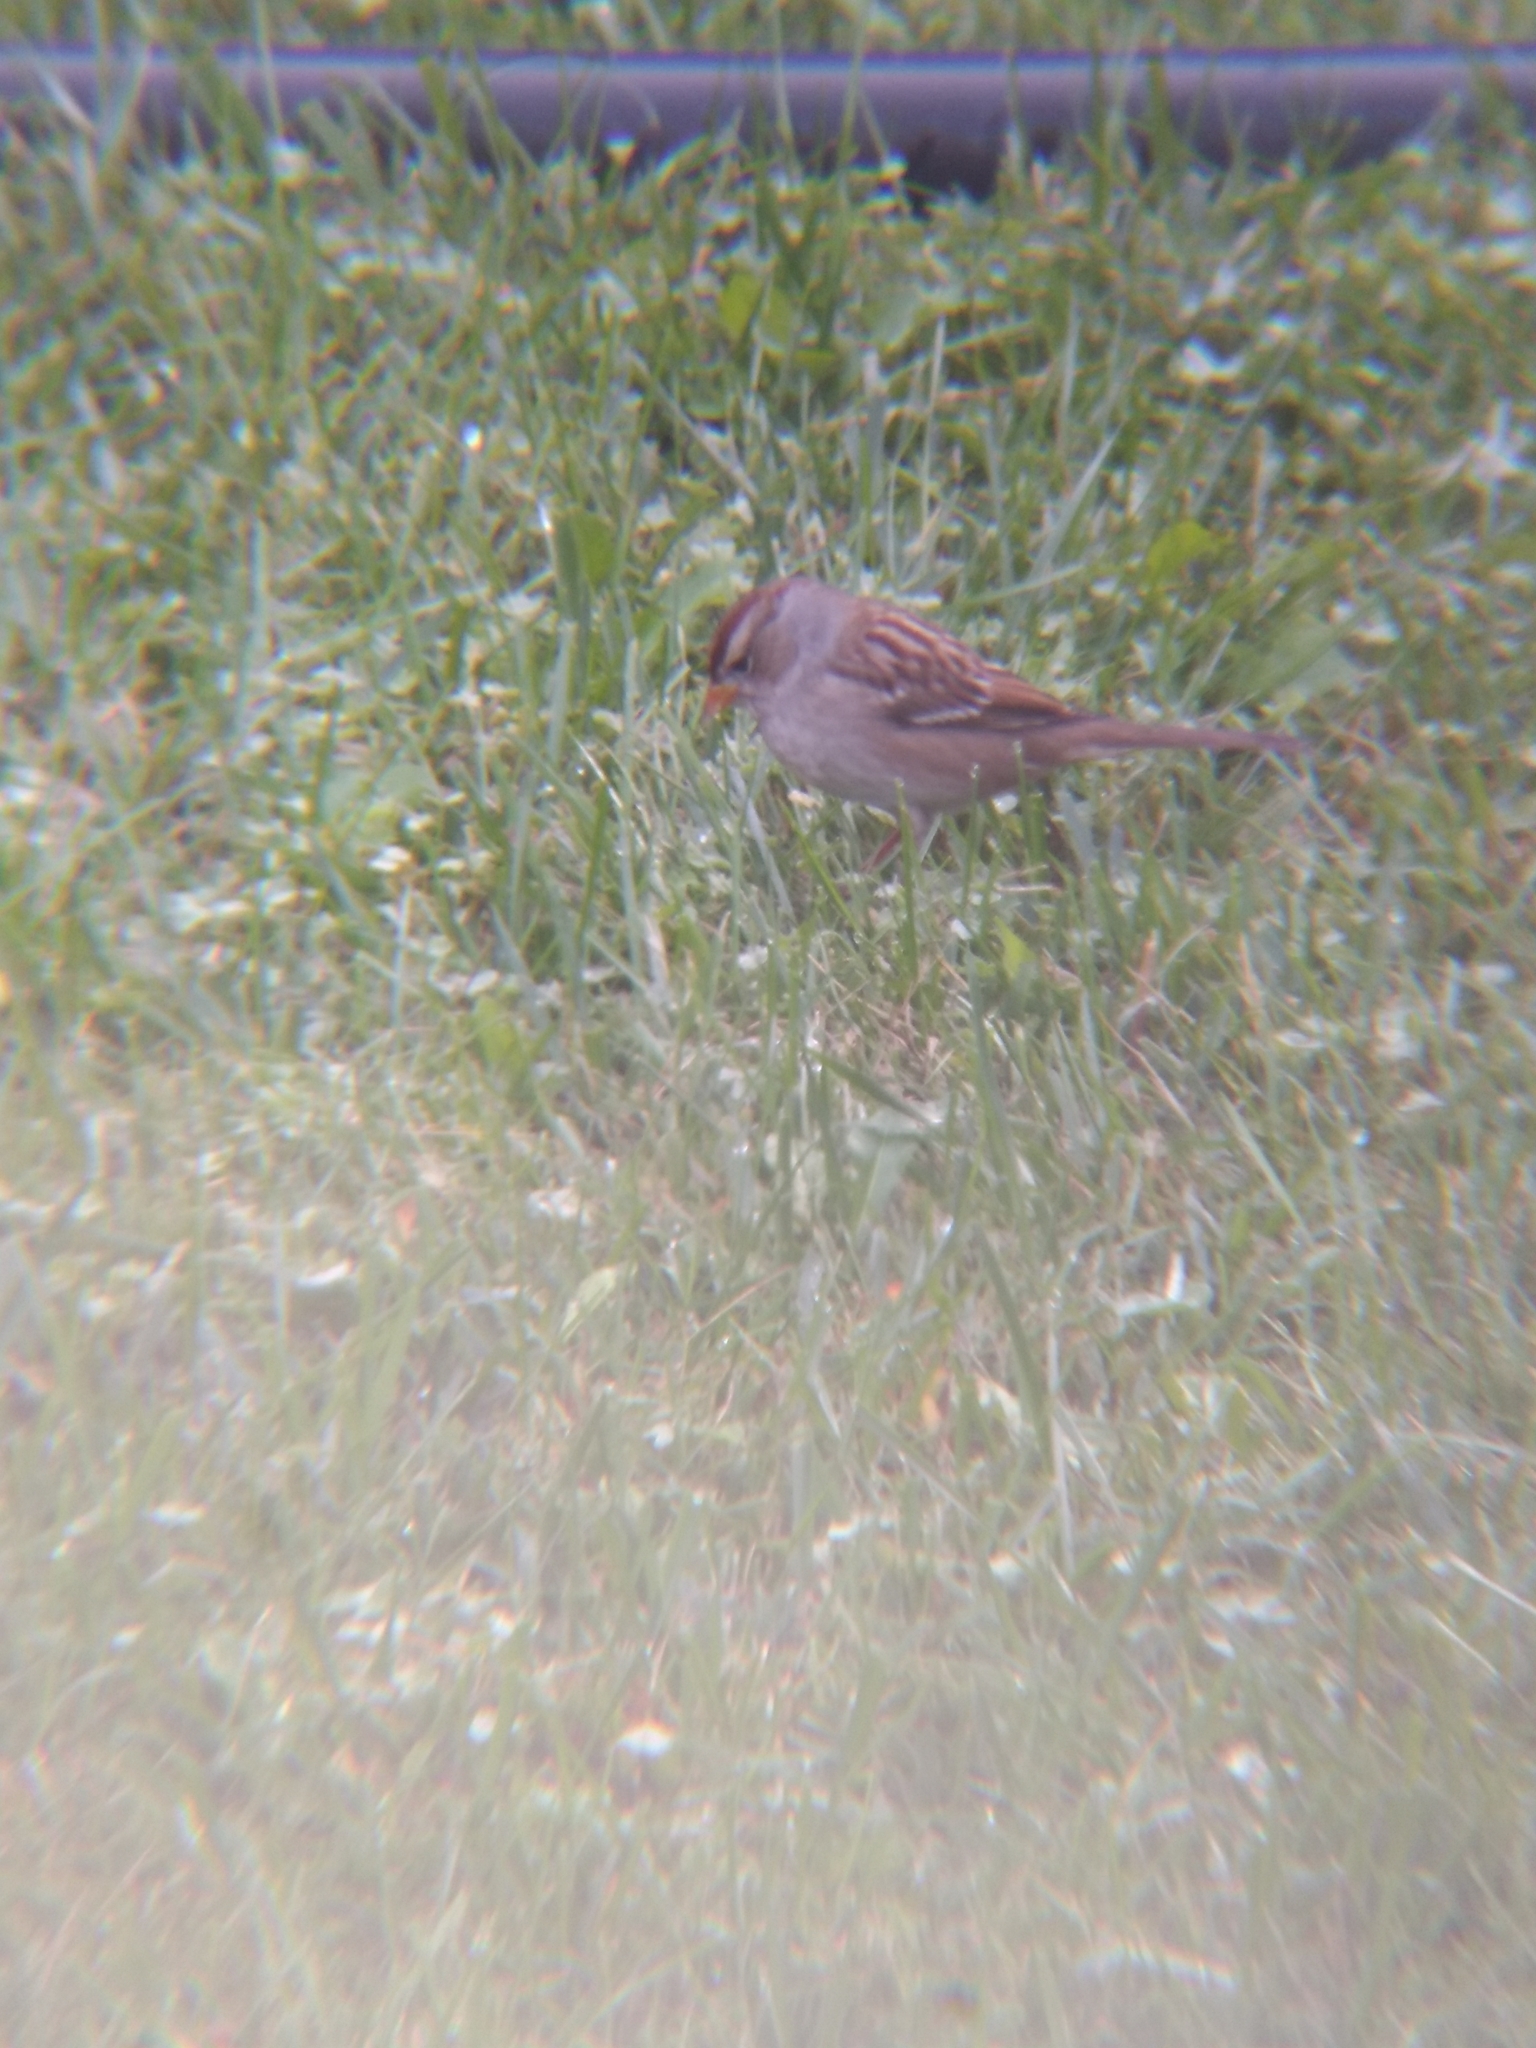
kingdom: Animalia
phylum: Chordata
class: Aves
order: Passeriformes
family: Passerellidae
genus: Zonotrichia
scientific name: Zonotrichia leucophrys
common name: White-crowned sparrow
